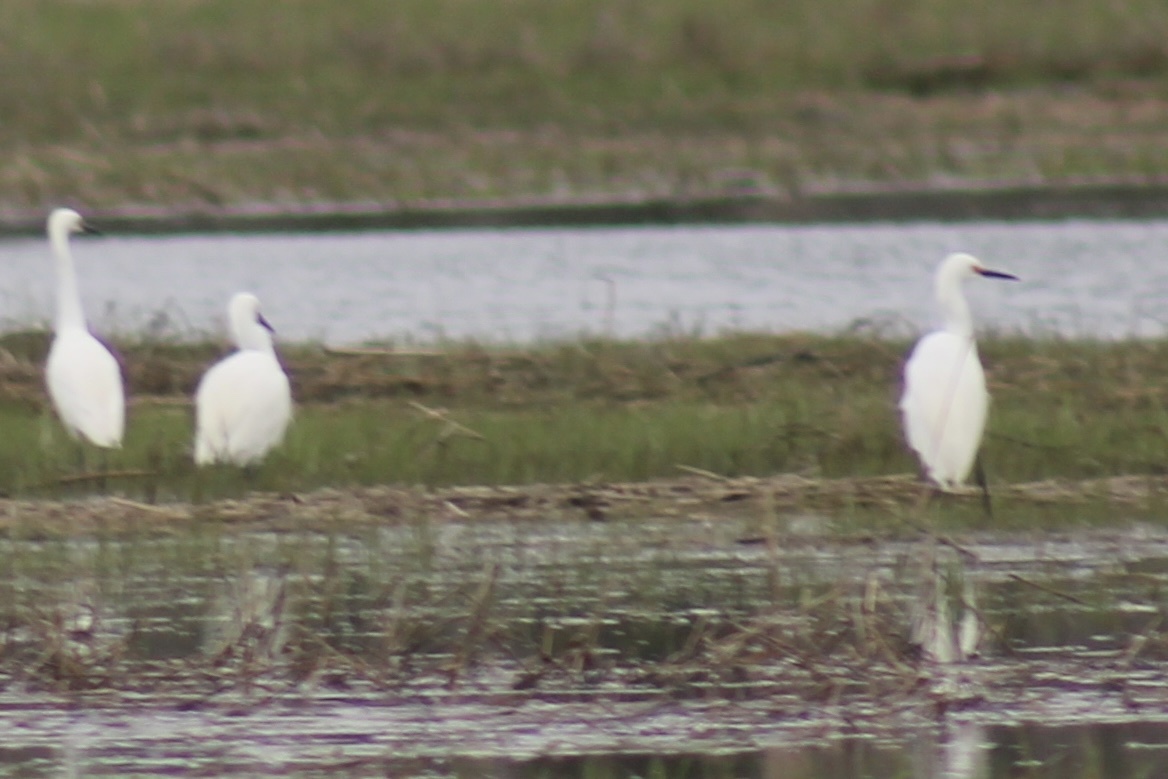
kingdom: Animalia
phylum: Chordata
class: Aves
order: Pelecaniformes
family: Ardeidae
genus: Egretta
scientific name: Egretta thula
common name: Snowy egret
